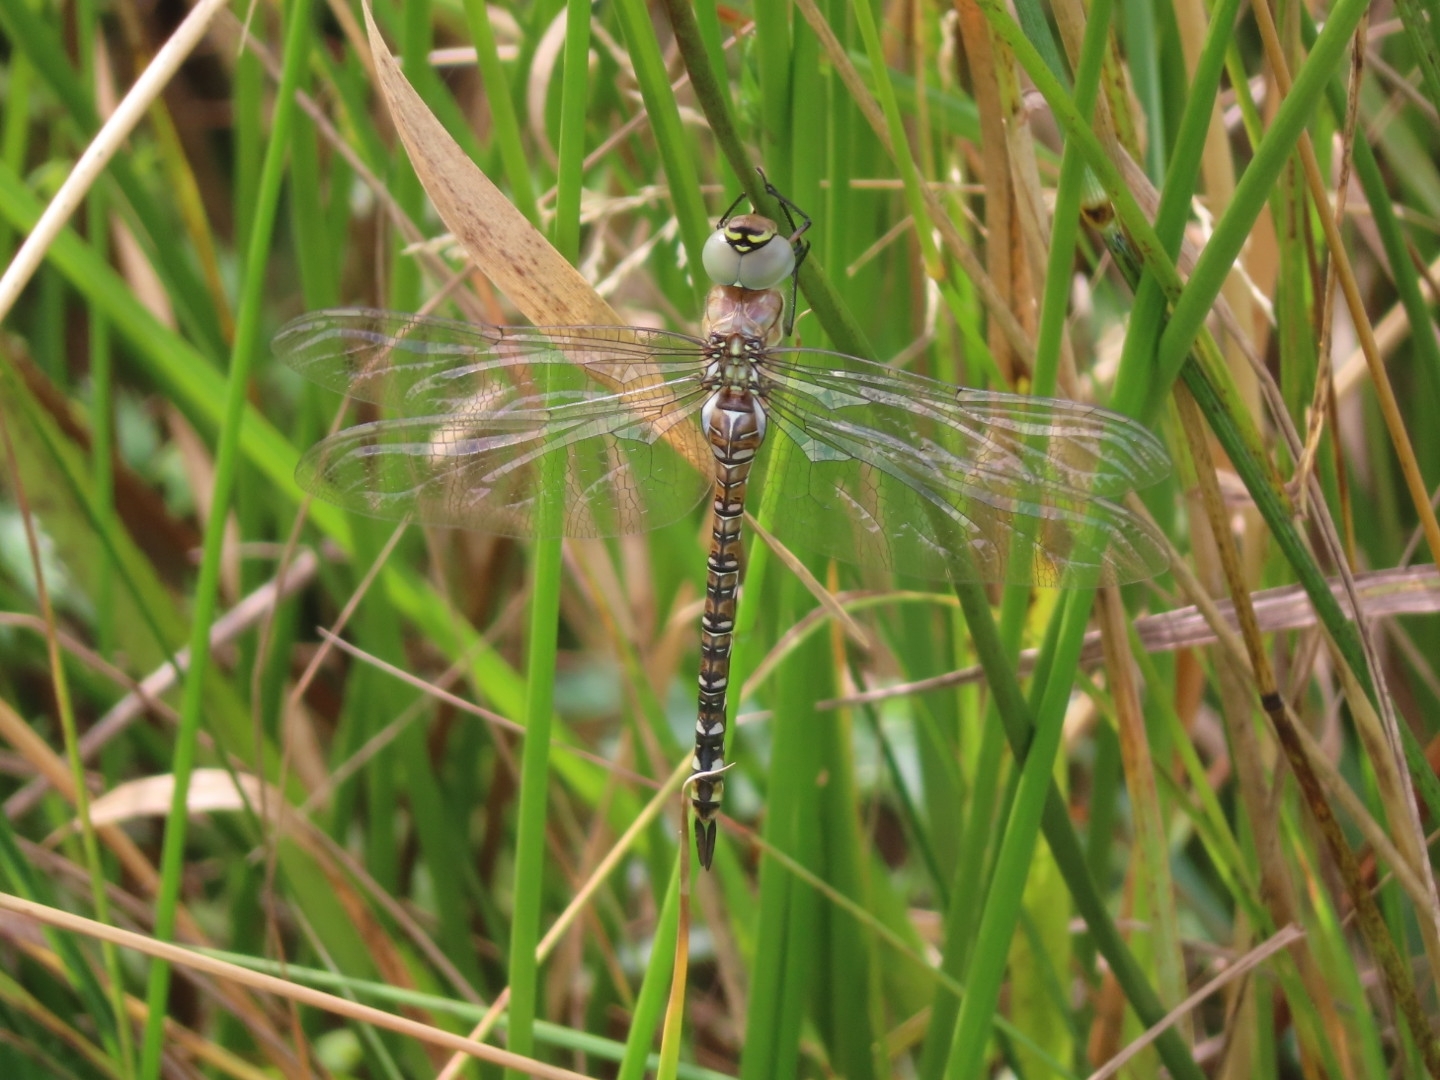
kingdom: Animalia
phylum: Arthropoda
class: Insecta
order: Odonata
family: Aeshnidae
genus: Aeshna
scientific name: Aeshna mixta
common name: Migrant hawker
